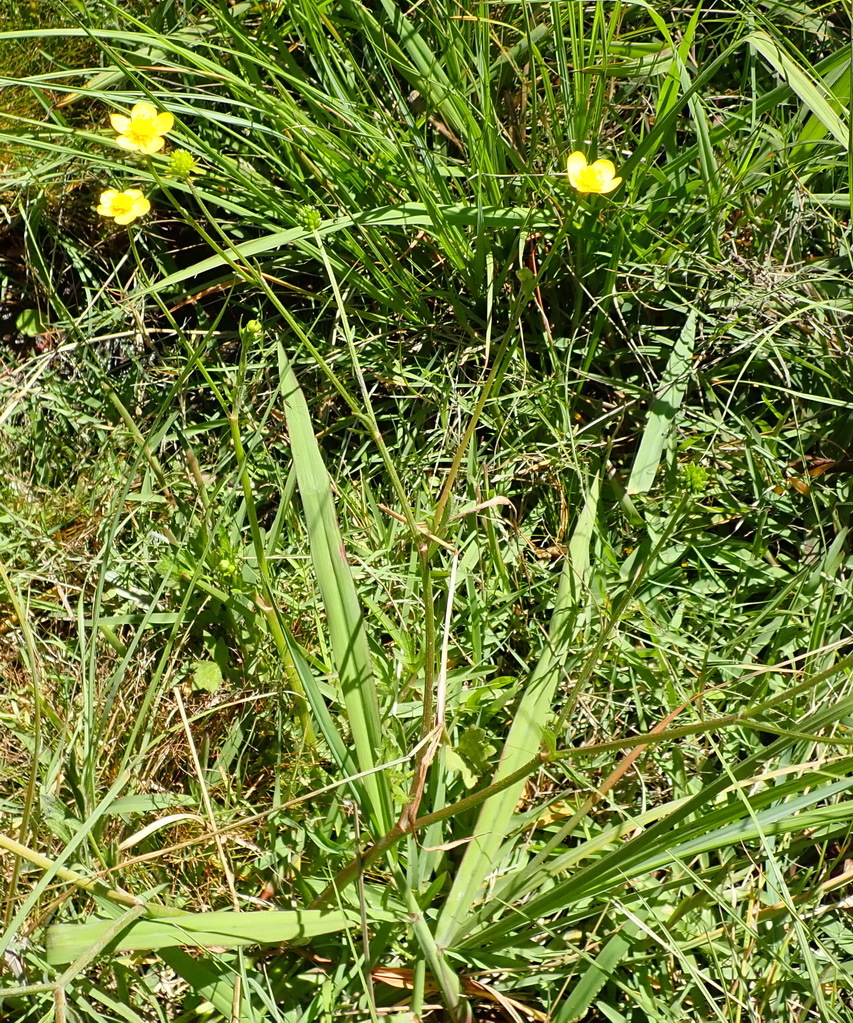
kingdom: Plantae
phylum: Tracheophyta
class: Magnoliopsida
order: Ranunculales
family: Ranunculaceae
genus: Ranunculus
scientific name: Ranunculus multifidus
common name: Wild buttercup
